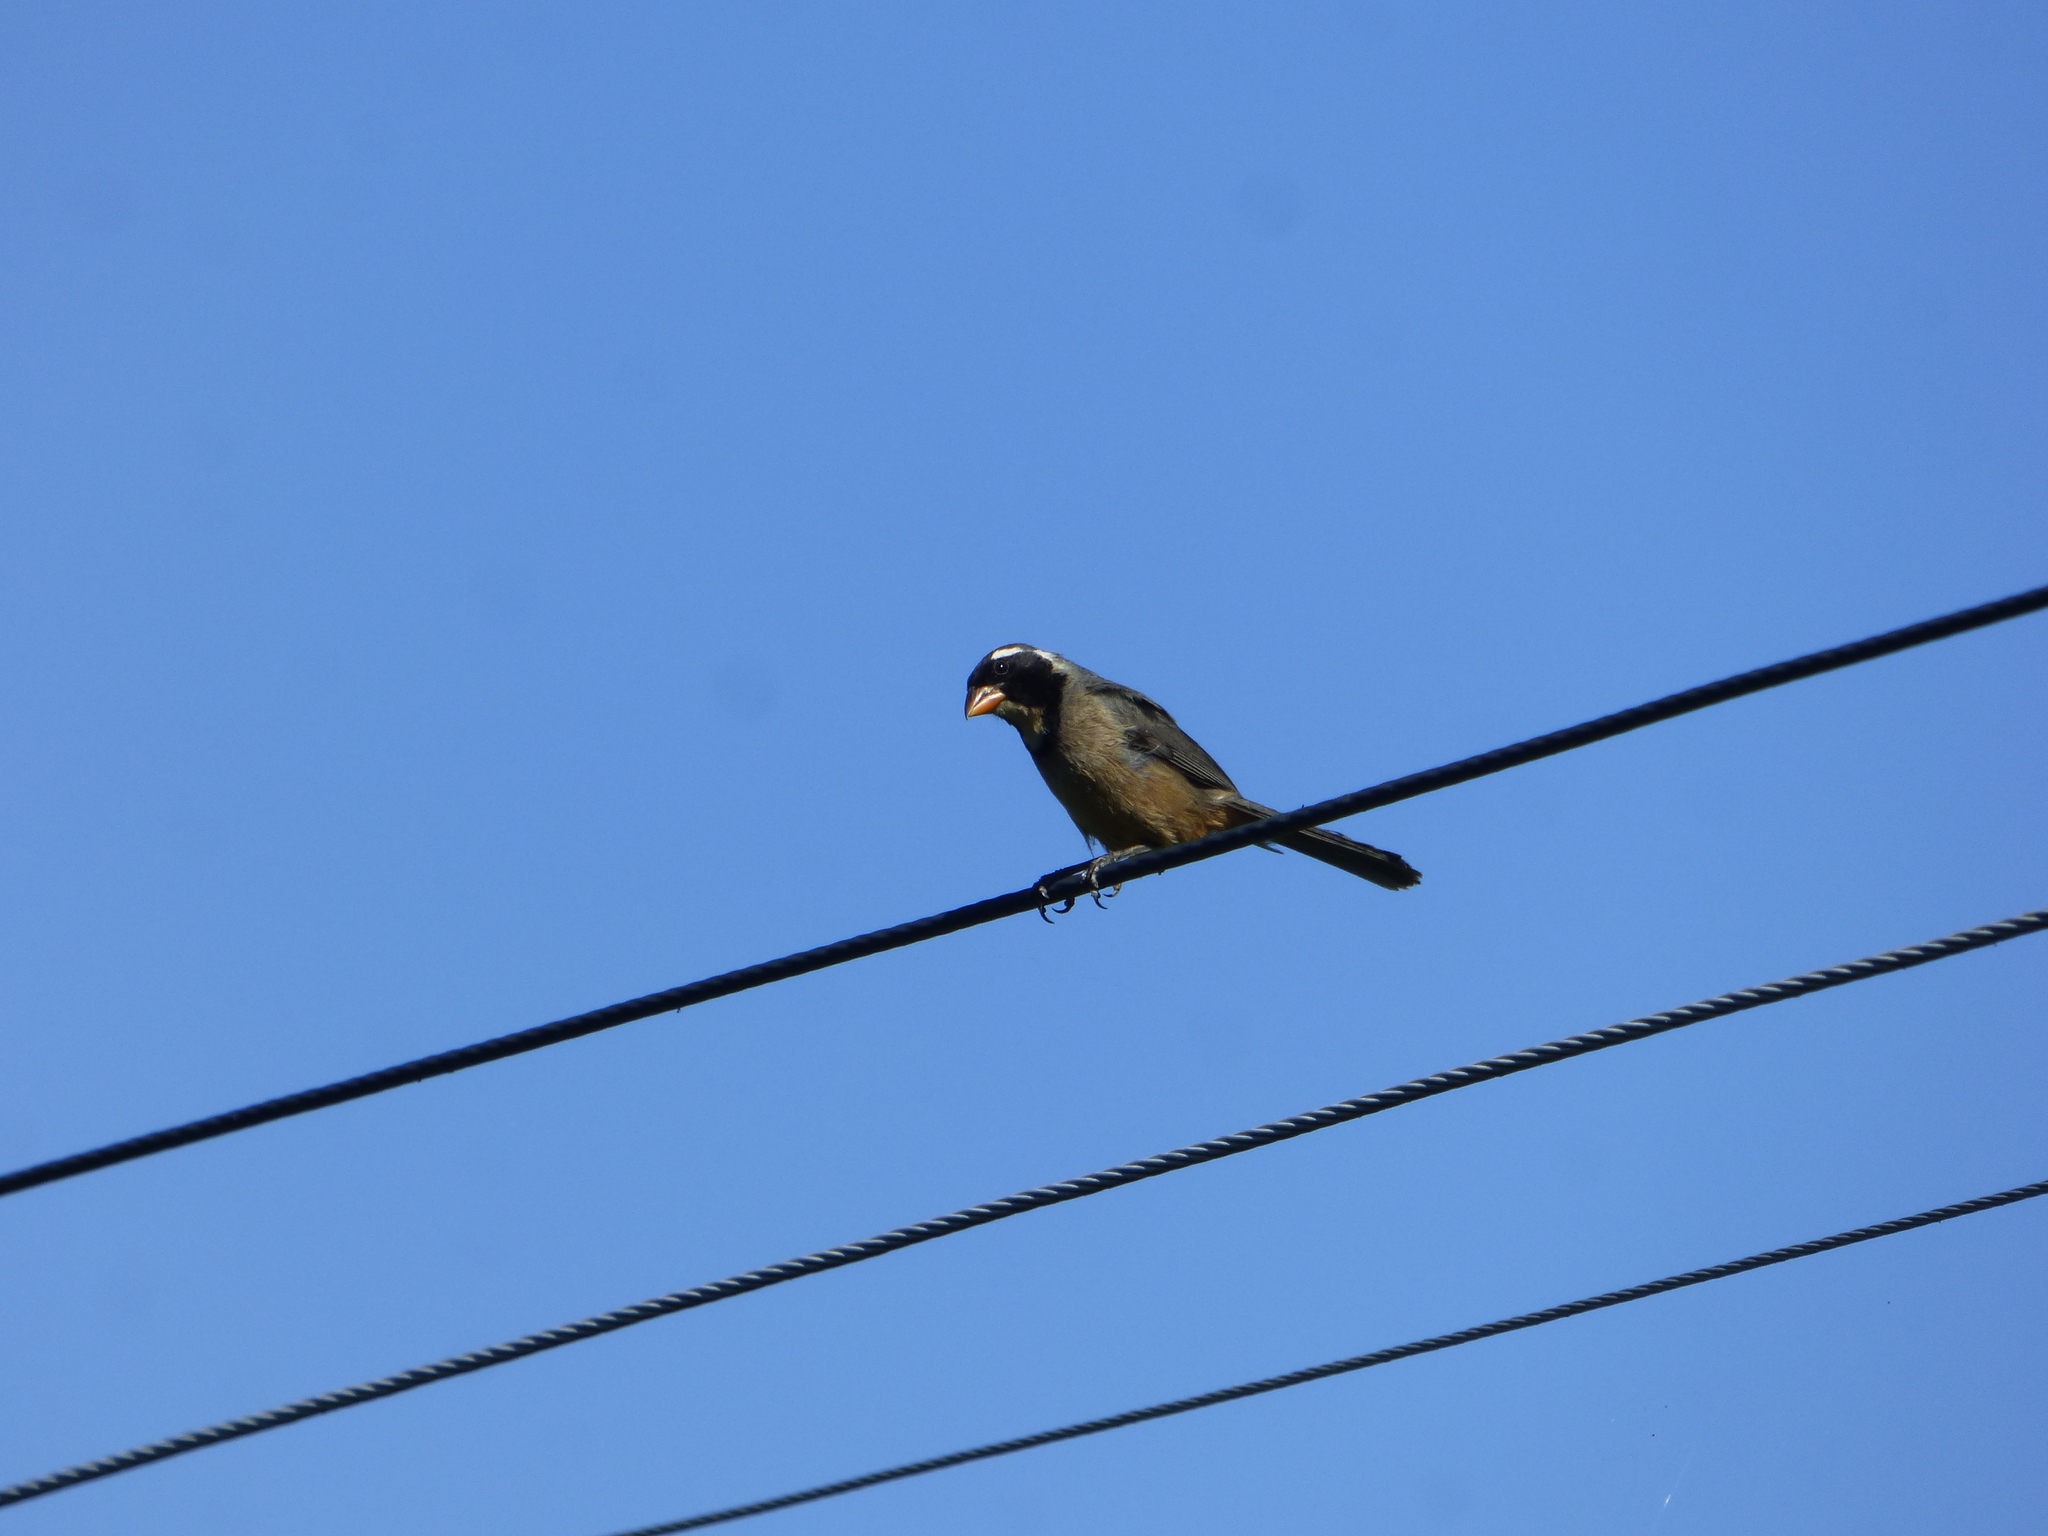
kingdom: Animalia
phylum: Chordata
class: Aves
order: Passeriformes
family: Thraupidae
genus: Saltator
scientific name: Saltator aurantiirostris
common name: Golden-billed saltator
